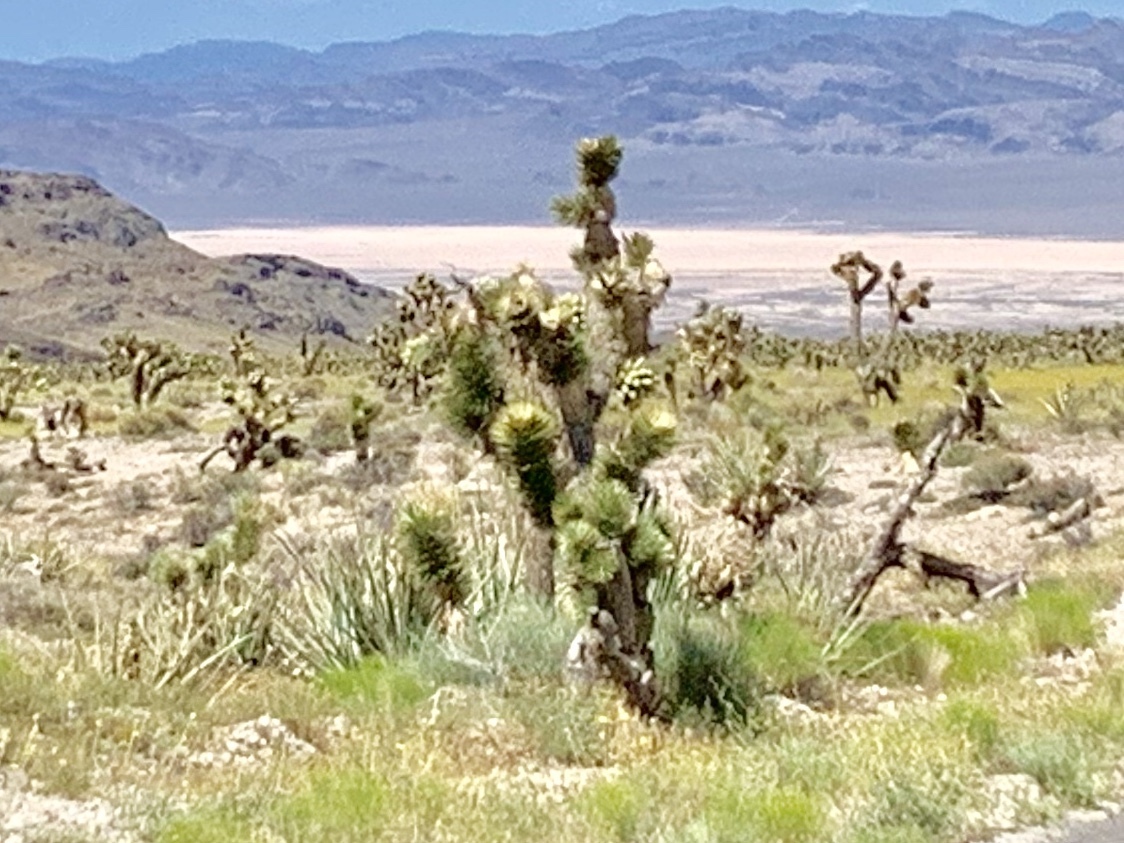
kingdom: Plantae
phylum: Tracheophyta
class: Liliopsida
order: Asparagales
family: Asparagaceae
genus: Yucca
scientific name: Yucca brevifolia
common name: Joshua tree
